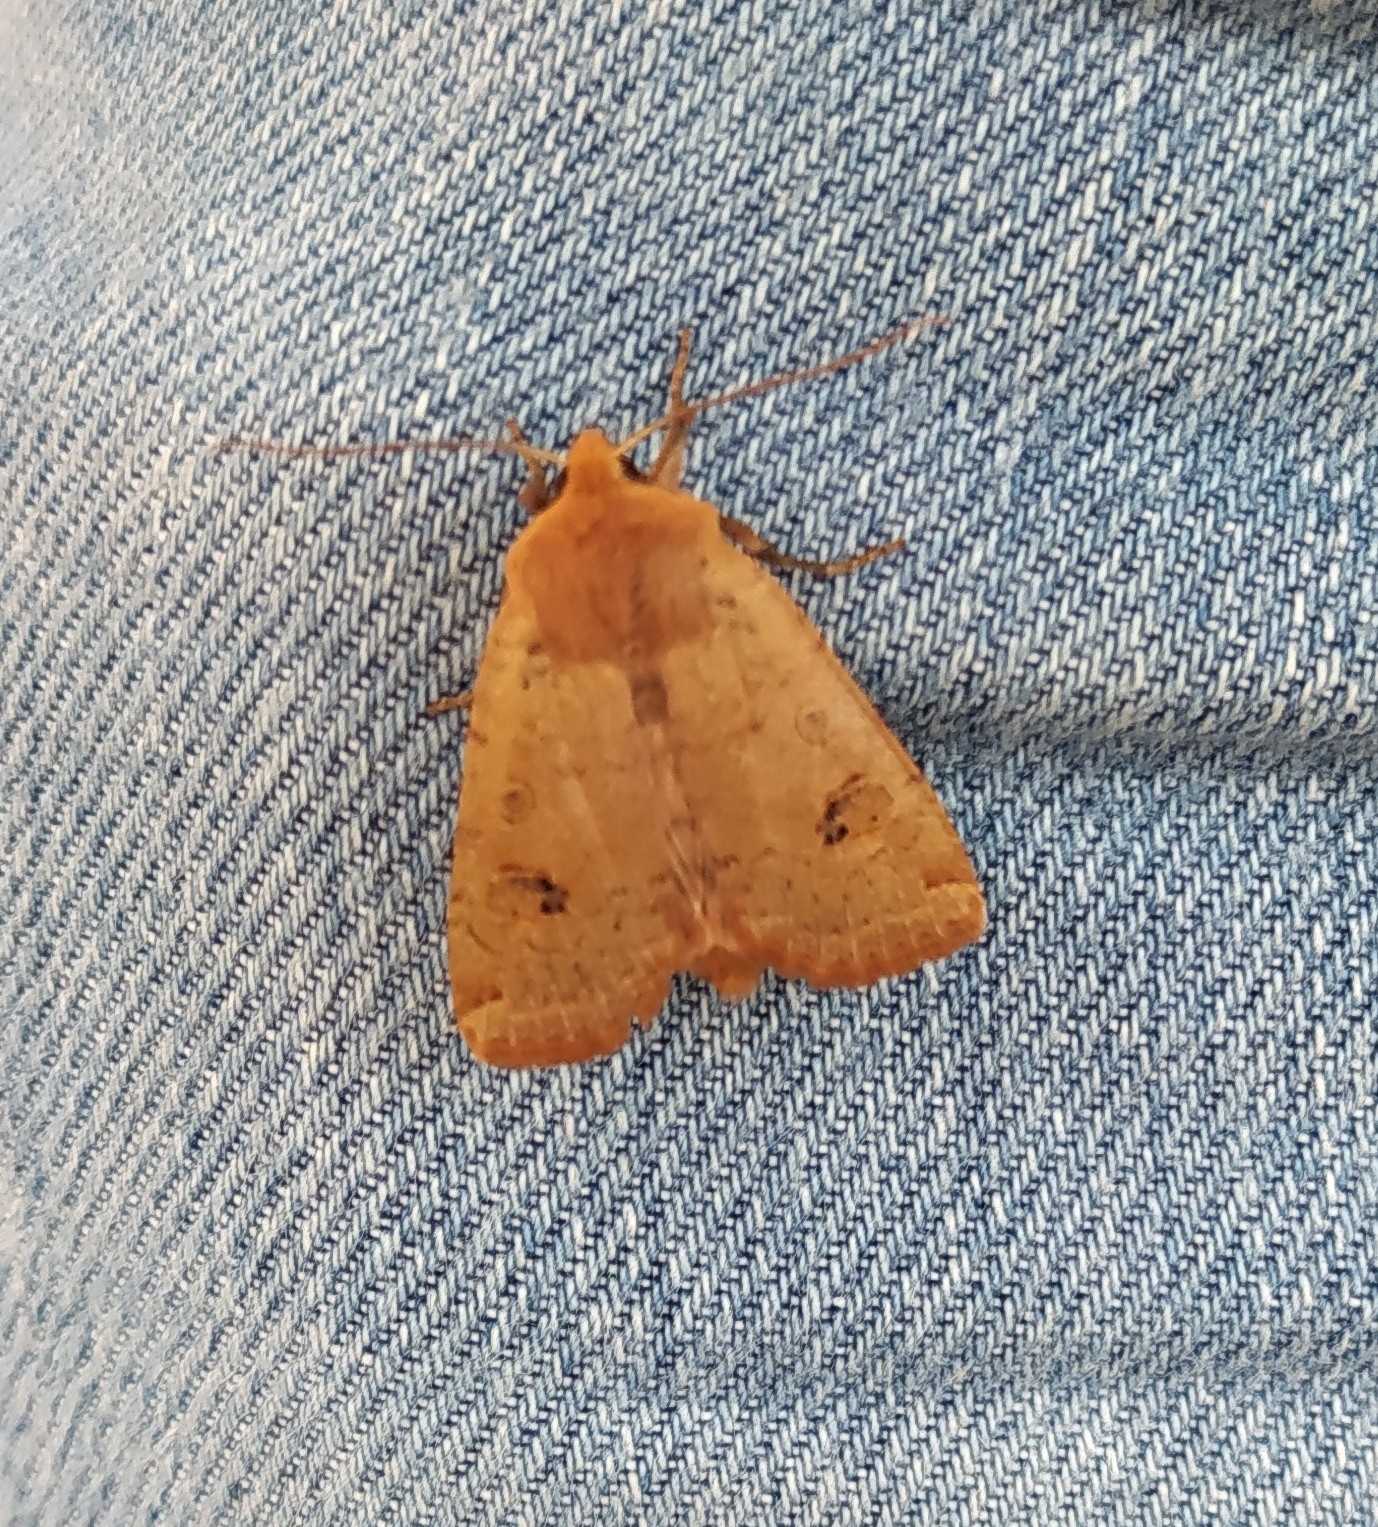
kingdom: Animalia
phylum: Arthropoda
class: Insecta
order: Lepidoptera
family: Noctuidae
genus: Conistra
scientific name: Conistra erythrocephala
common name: Red-headed chestnut
